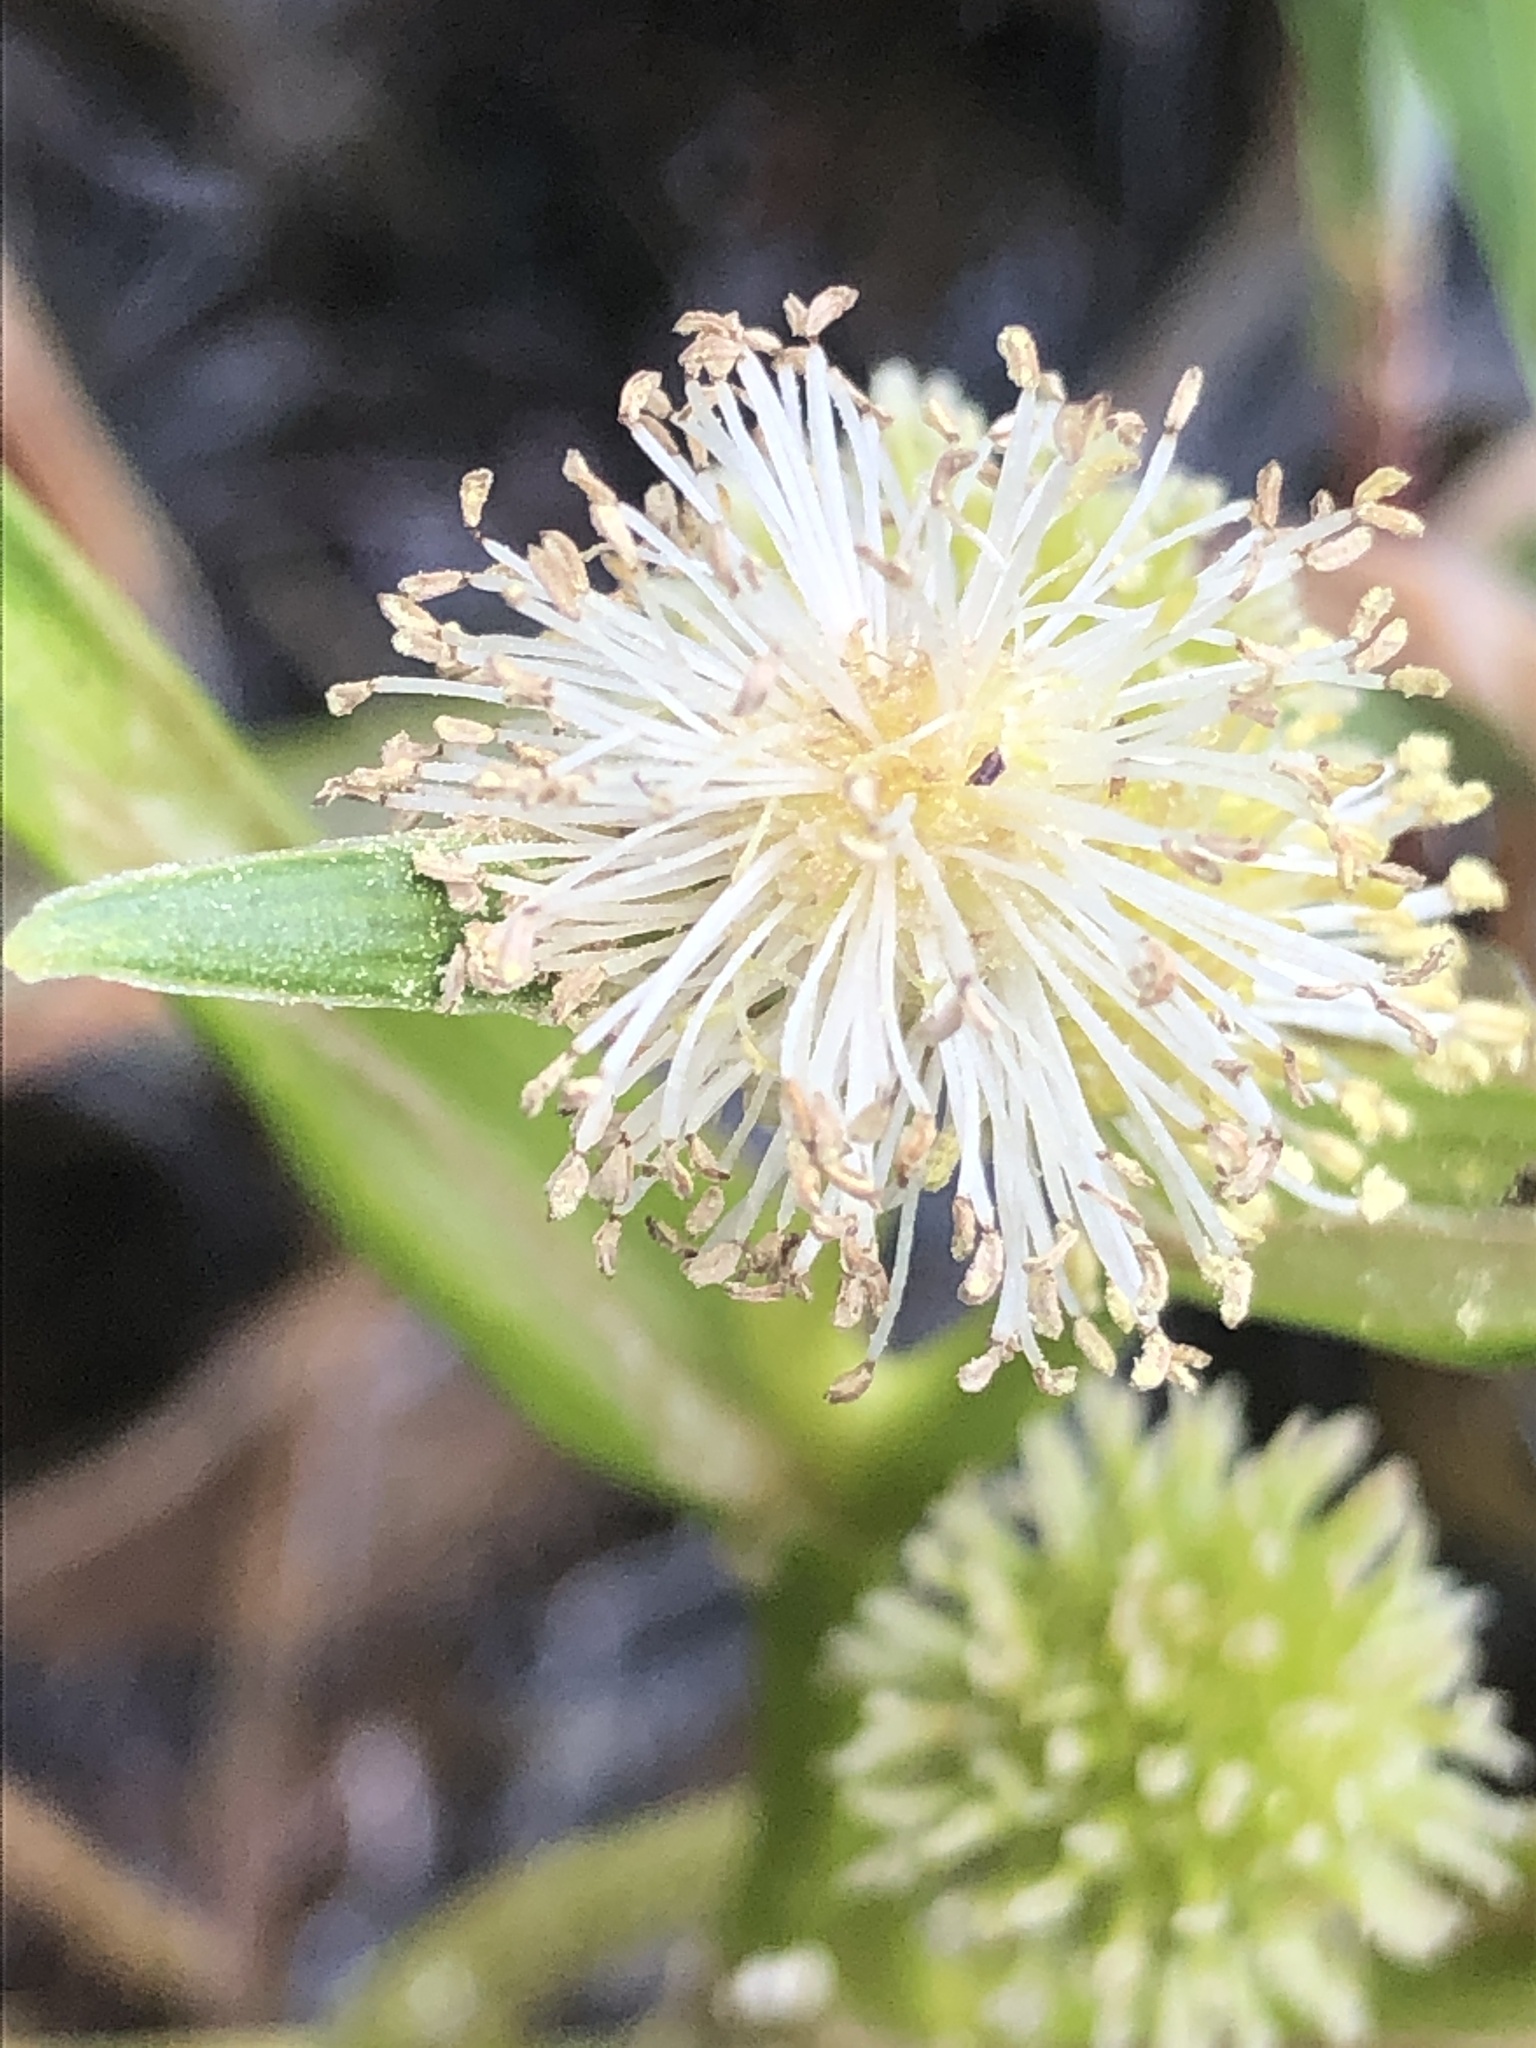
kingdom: Plantae
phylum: Tracheophyta
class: Liliopsida
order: Poales
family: Typhaceae
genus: Sparganium
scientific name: Sparganium angustifolium
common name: Floating bur-reed
